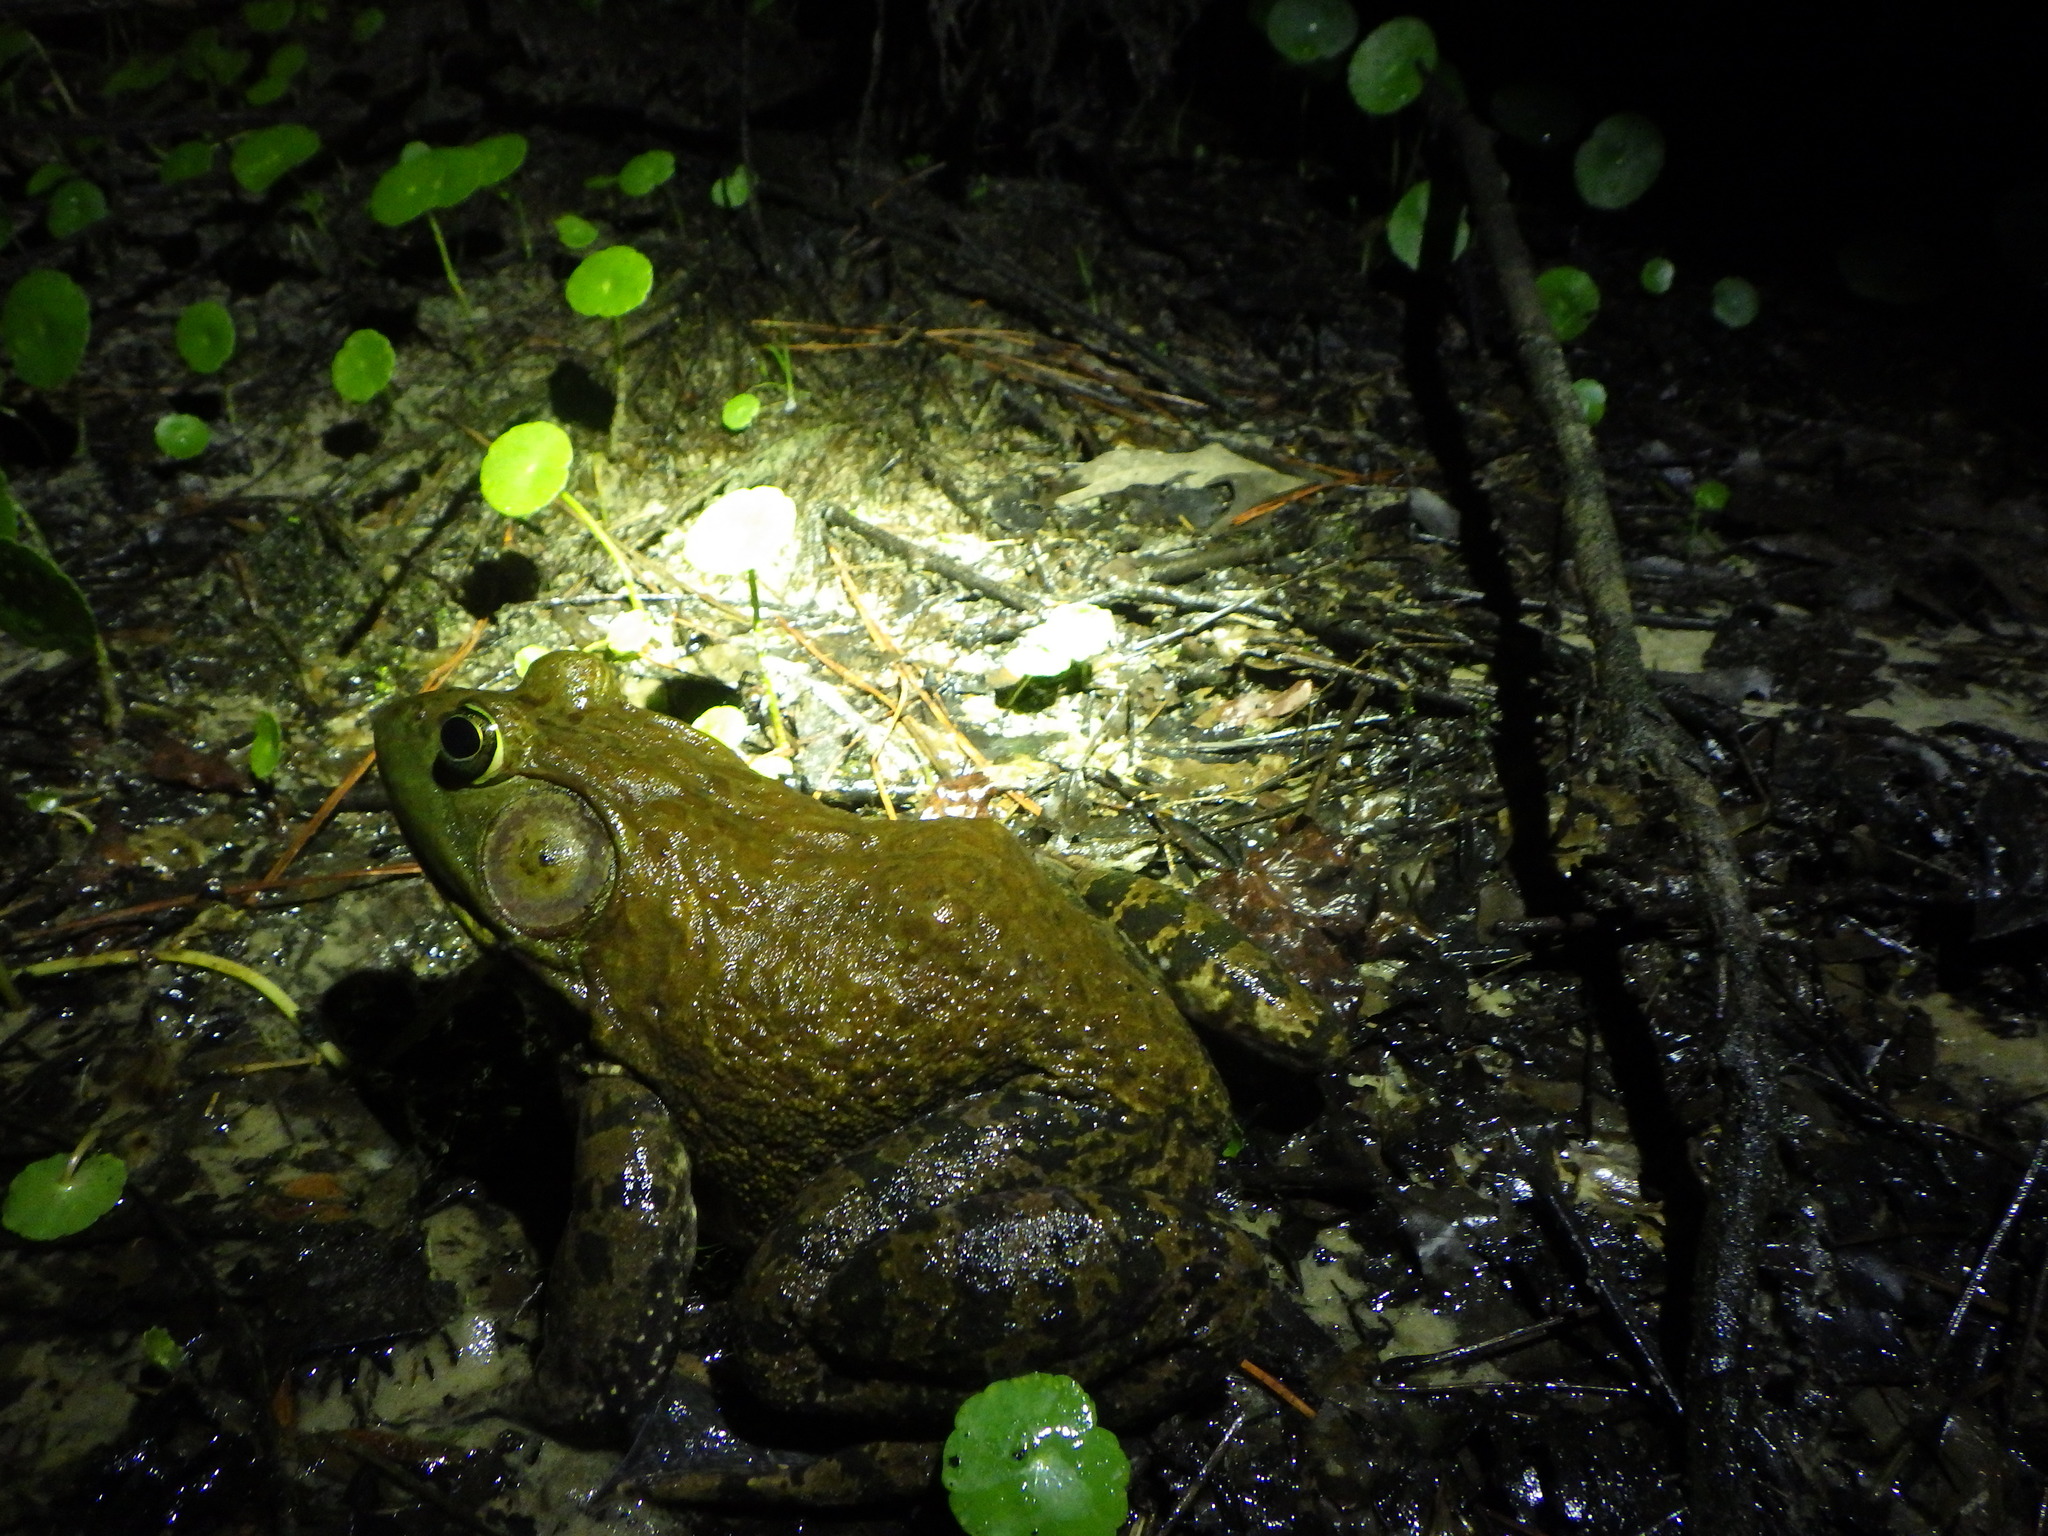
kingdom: Animalia
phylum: Chordata
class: Amphibia
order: Anura
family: Ranidae
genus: Lithobates
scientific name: Lithobates catesbeianus
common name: American bullfrog
